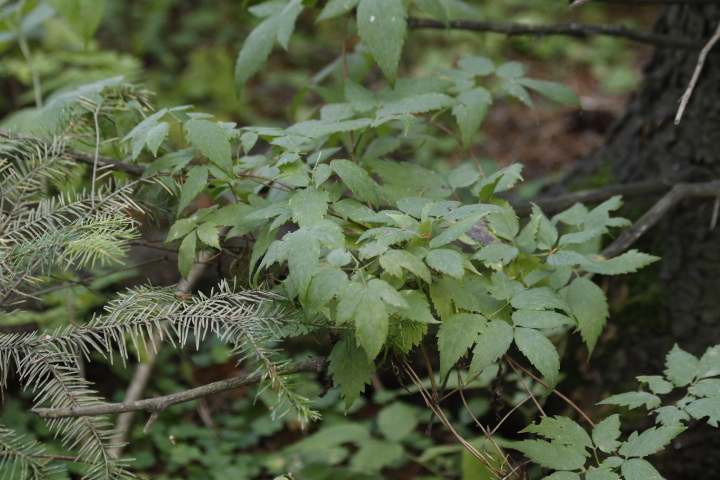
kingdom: Plantae
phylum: Tracheophyta
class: Magnoliopsida
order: Ranunculales
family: Ranunculaceae
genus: Clematis
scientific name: Clematis sibirica
